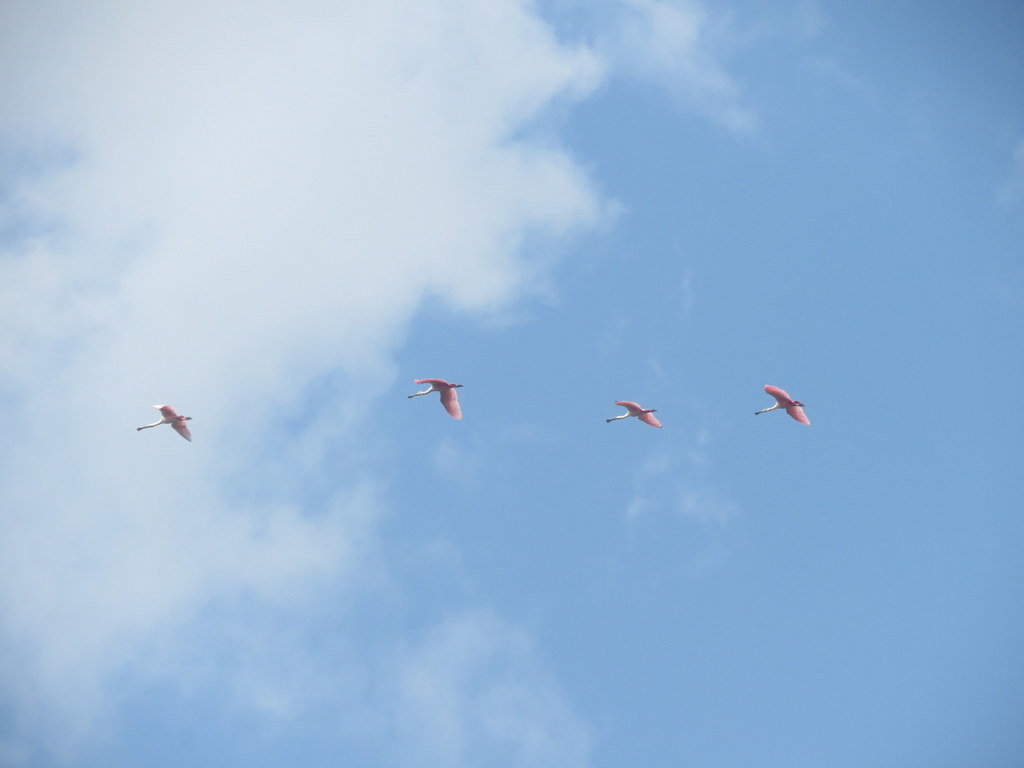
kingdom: Animalia
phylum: Chordata
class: Aves
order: Pelecaniformes
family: Threskiornithidae
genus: Platalea
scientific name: Platalea ajaja
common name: Roseate spoonbill
